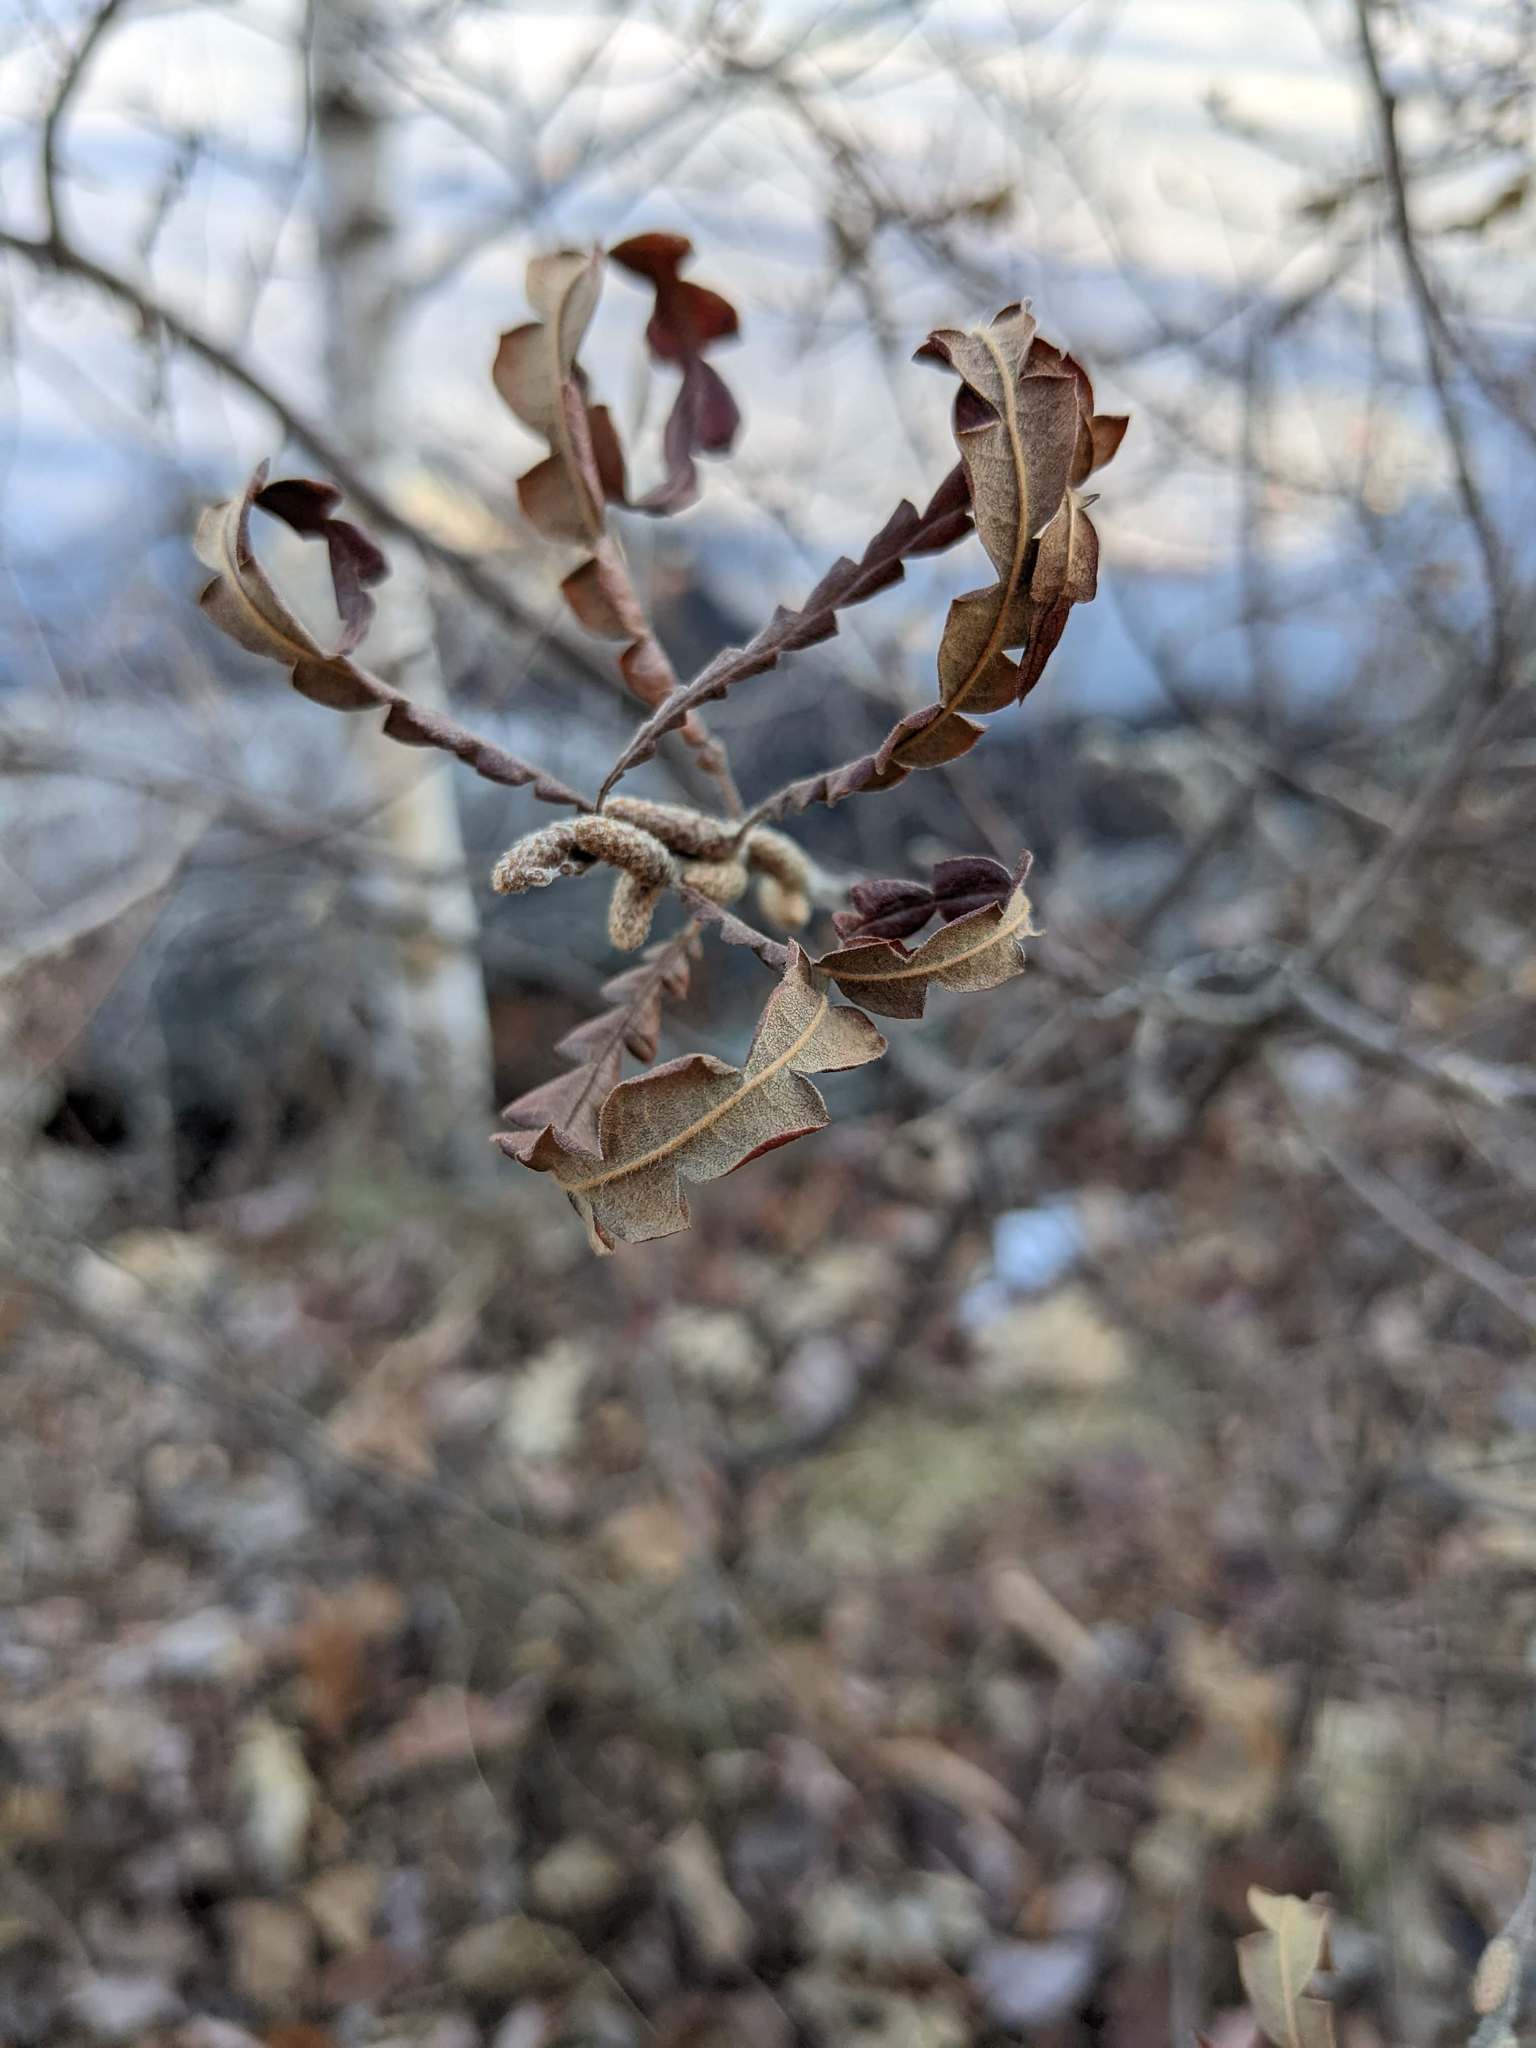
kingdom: Plantae
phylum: Tracheophyta
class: Magnoliopsida
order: Fagales
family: Myricaceae
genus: Comptonia
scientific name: Comptonia peregrina
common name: Sweet-fern
